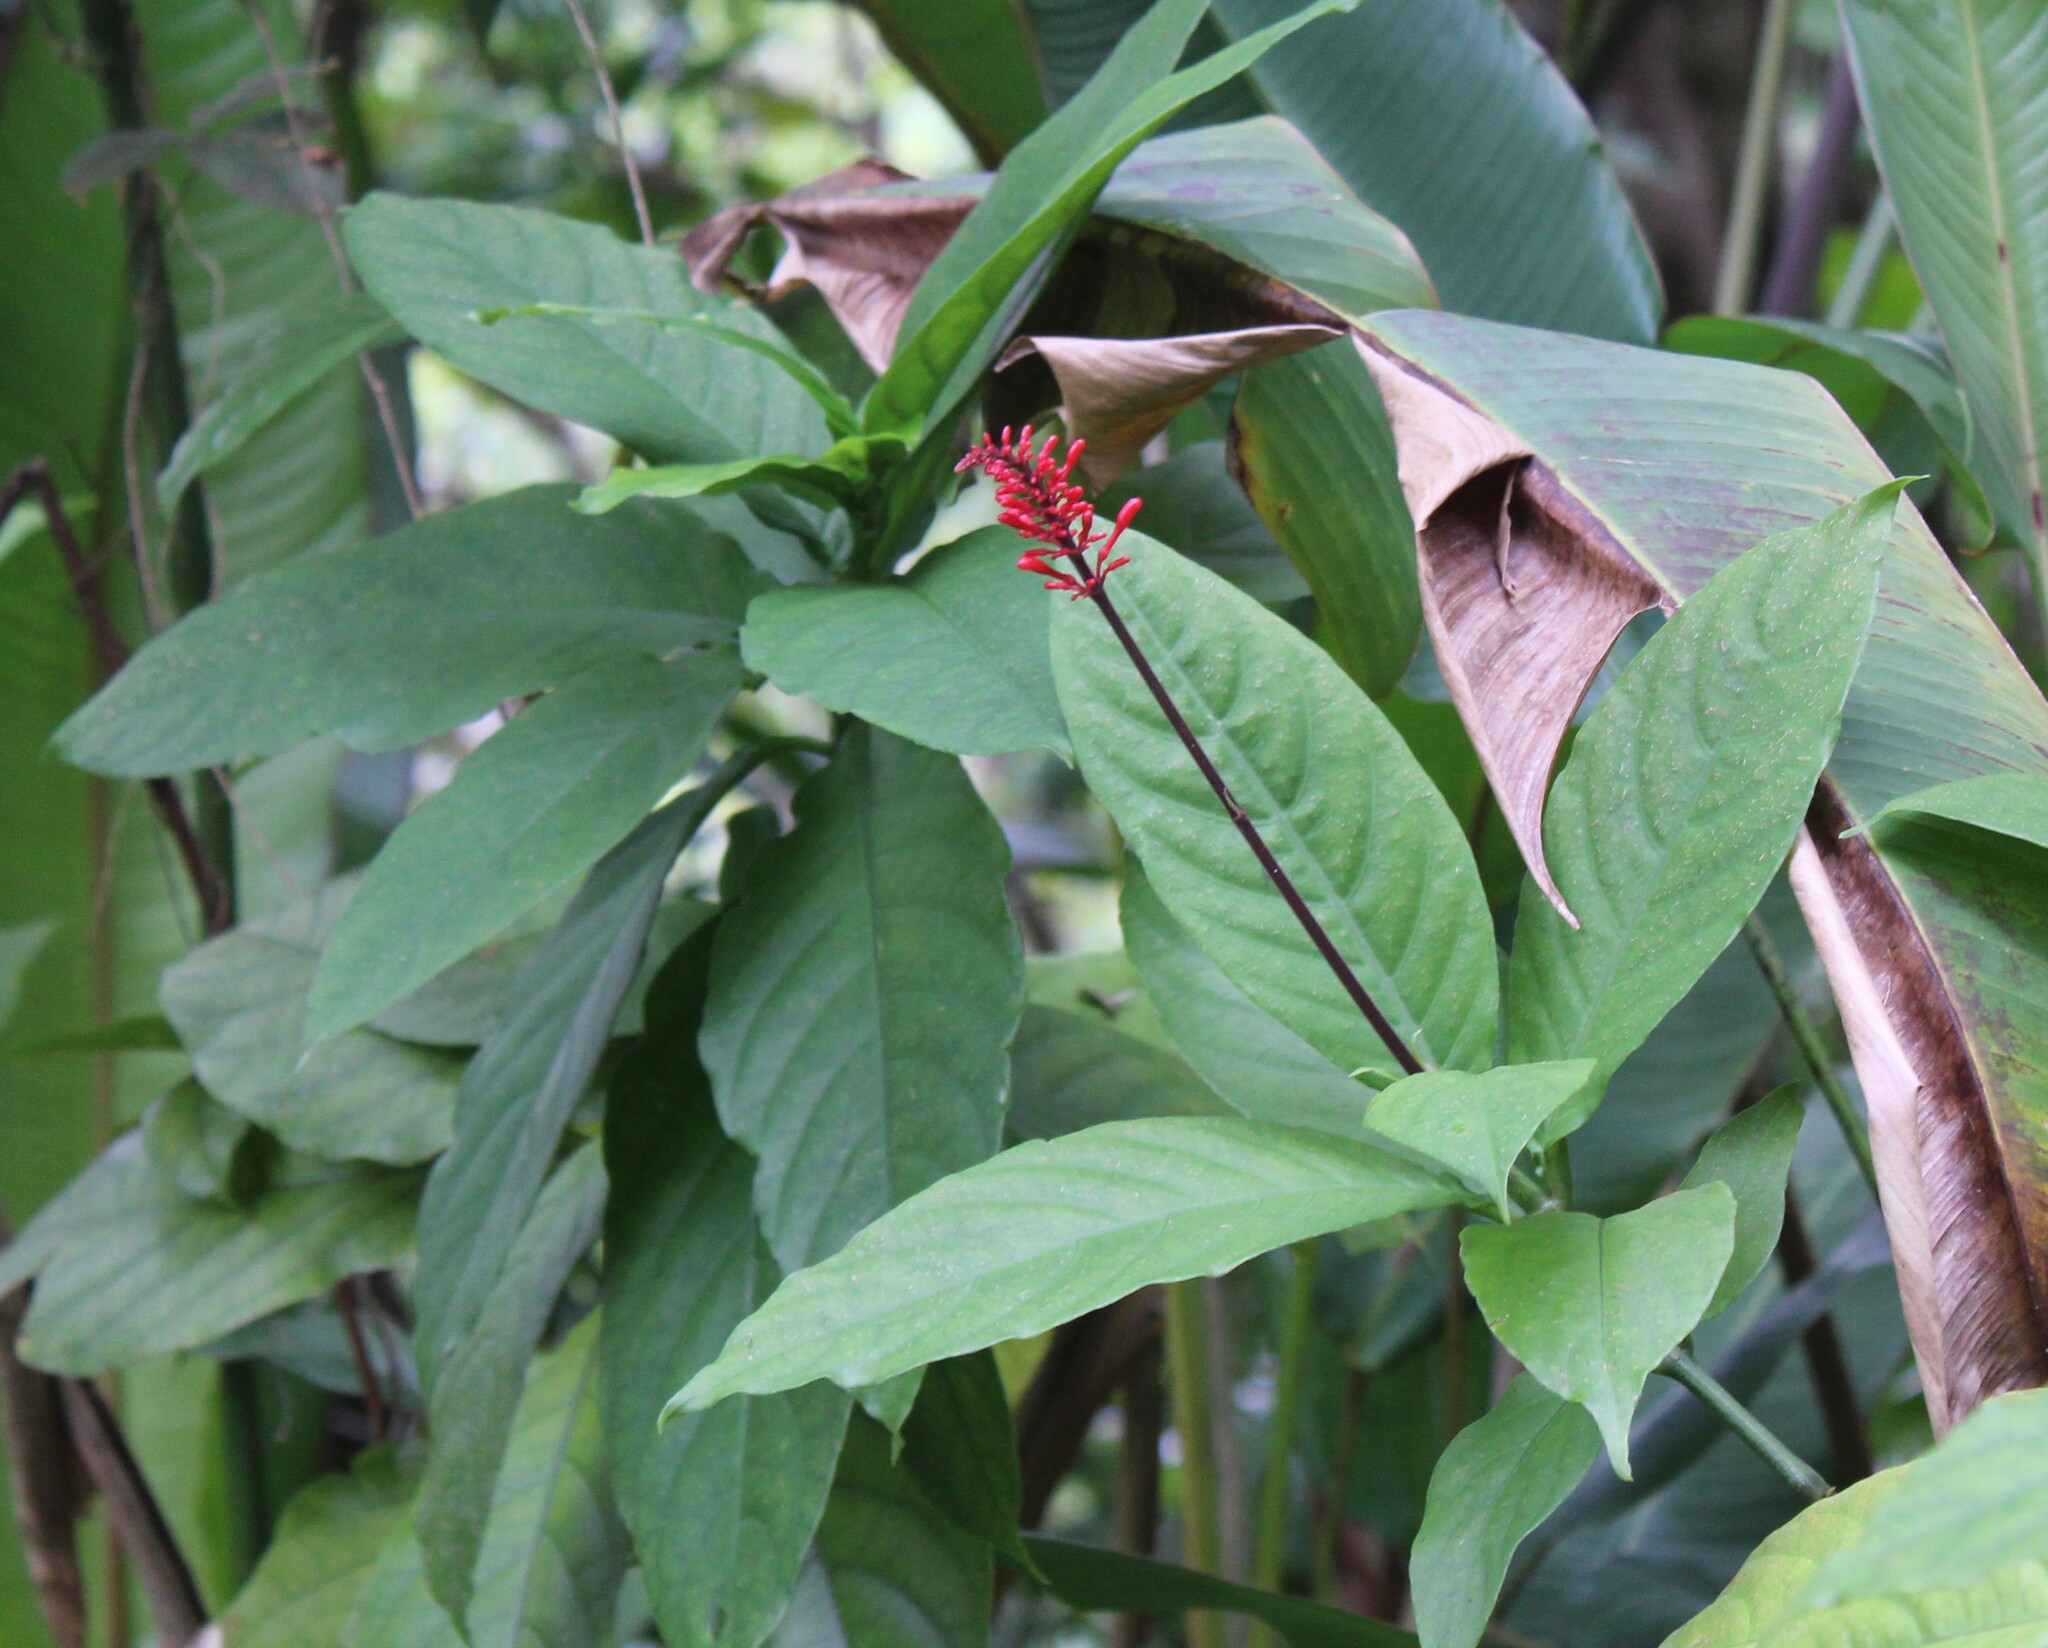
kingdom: Plantae
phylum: Tracheophyta
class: Magnoliopsida
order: Lamiales
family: Acanthaceae
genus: Odontonema
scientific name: Odontonema cuspidatum
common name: Mottled toothedthread
